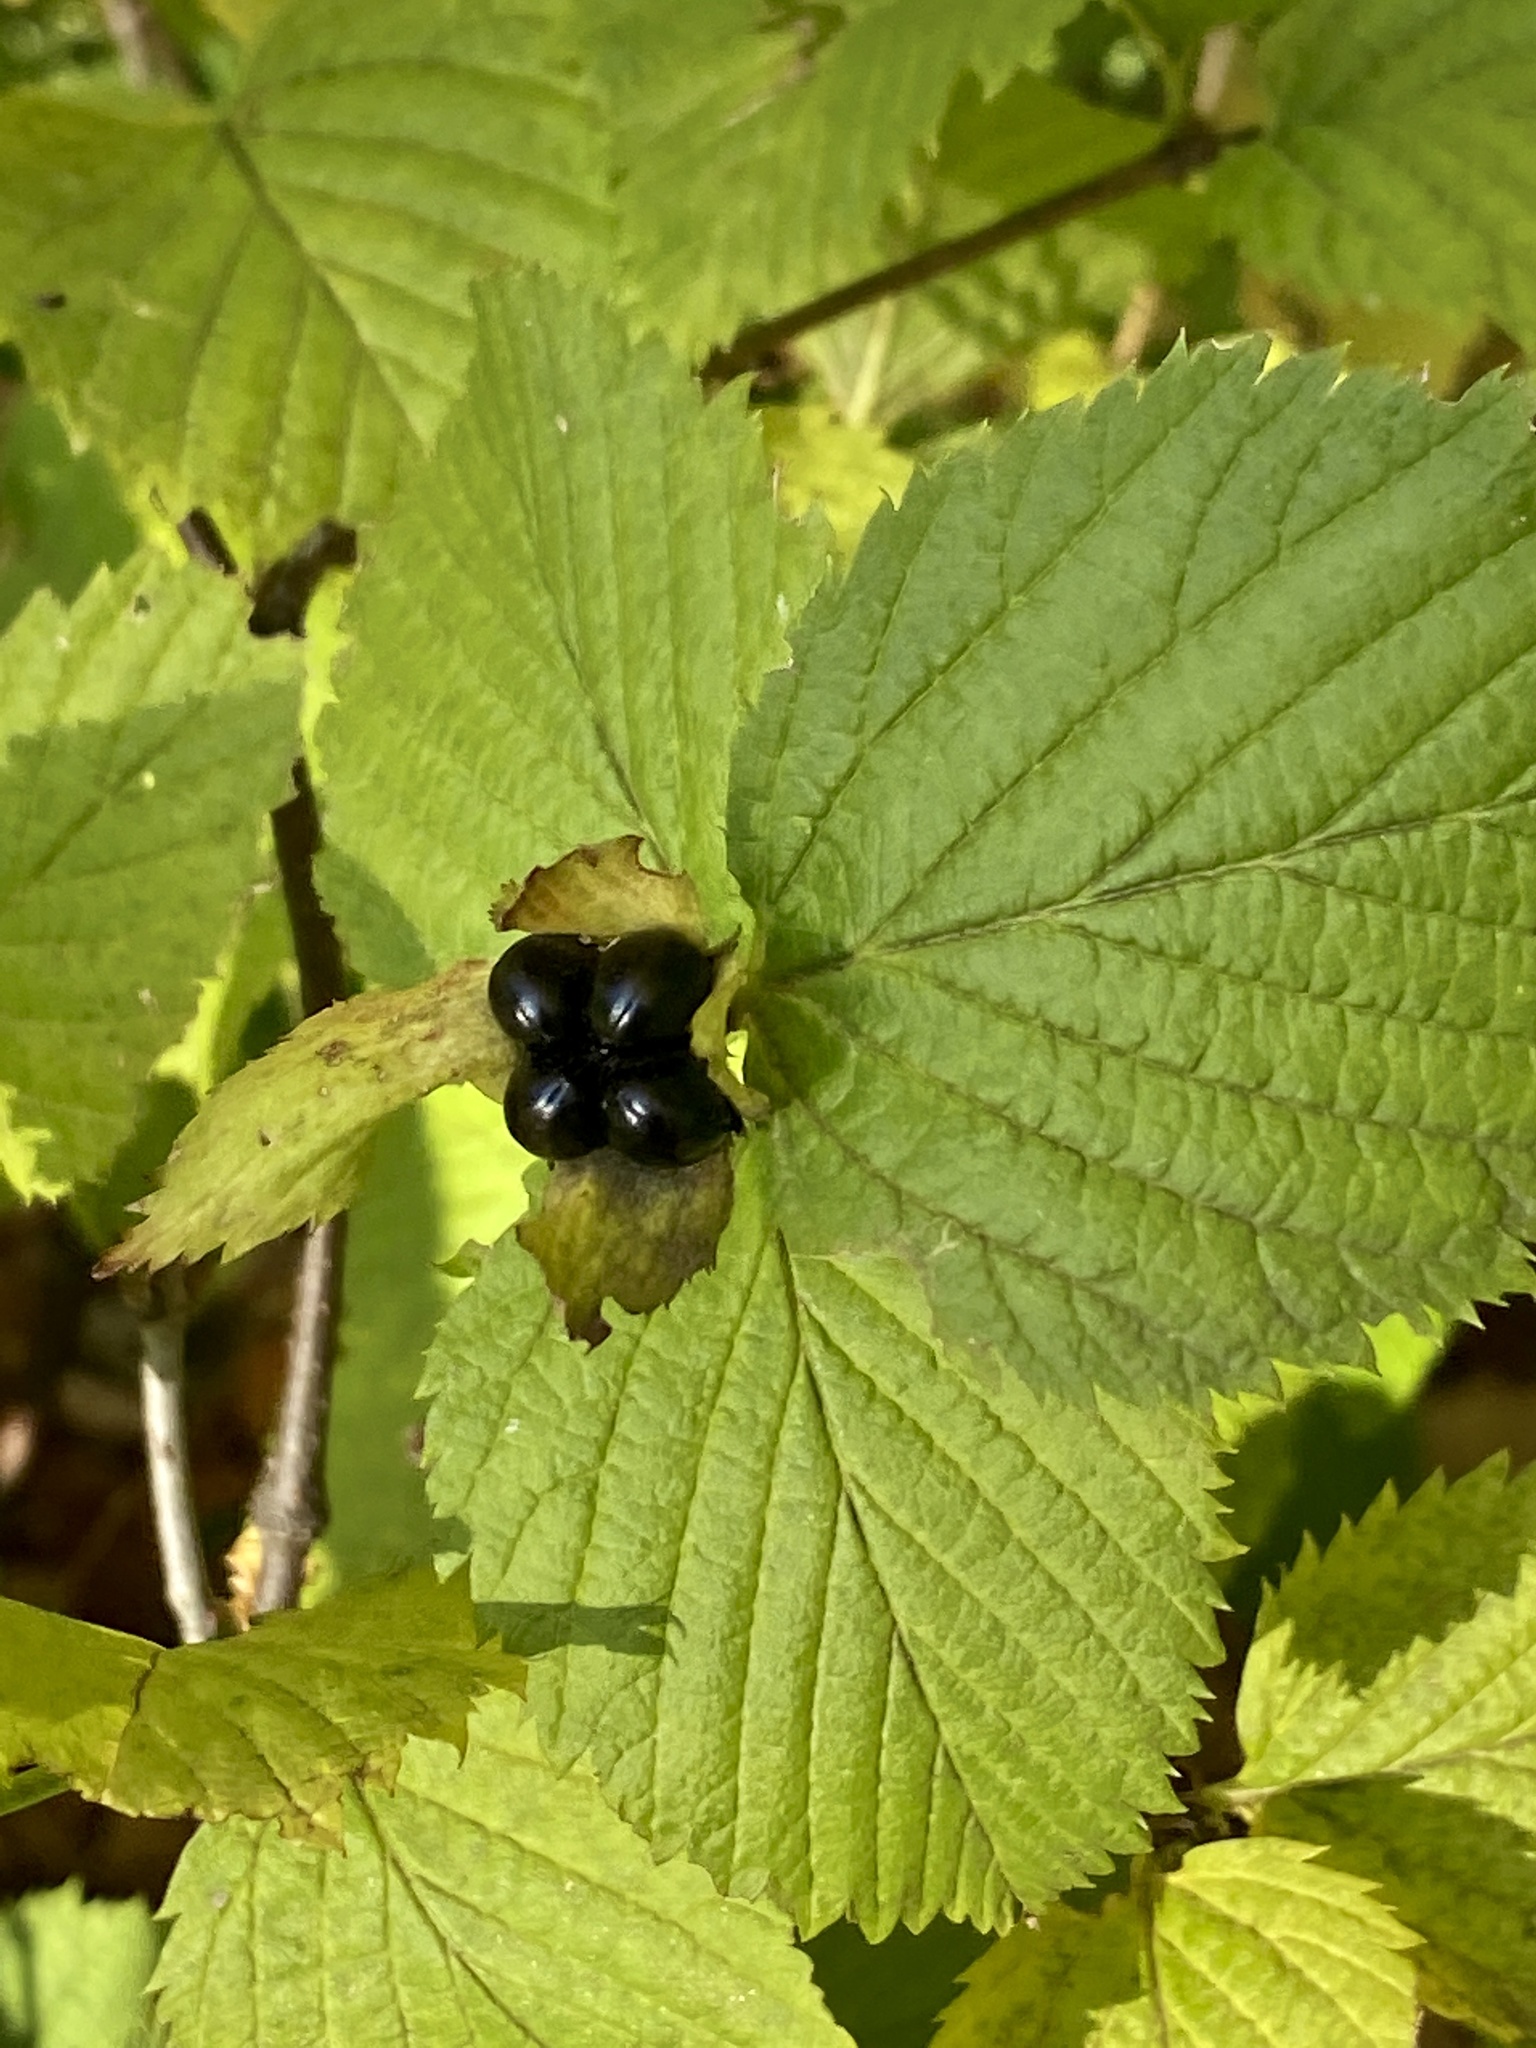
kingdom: Plantae
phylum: Tracheophyta
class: Magnoliopsida
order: Rosales
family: Rosaceae
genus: Rhodotypos
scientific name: Rhodotypos scandens
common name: Jetbead
